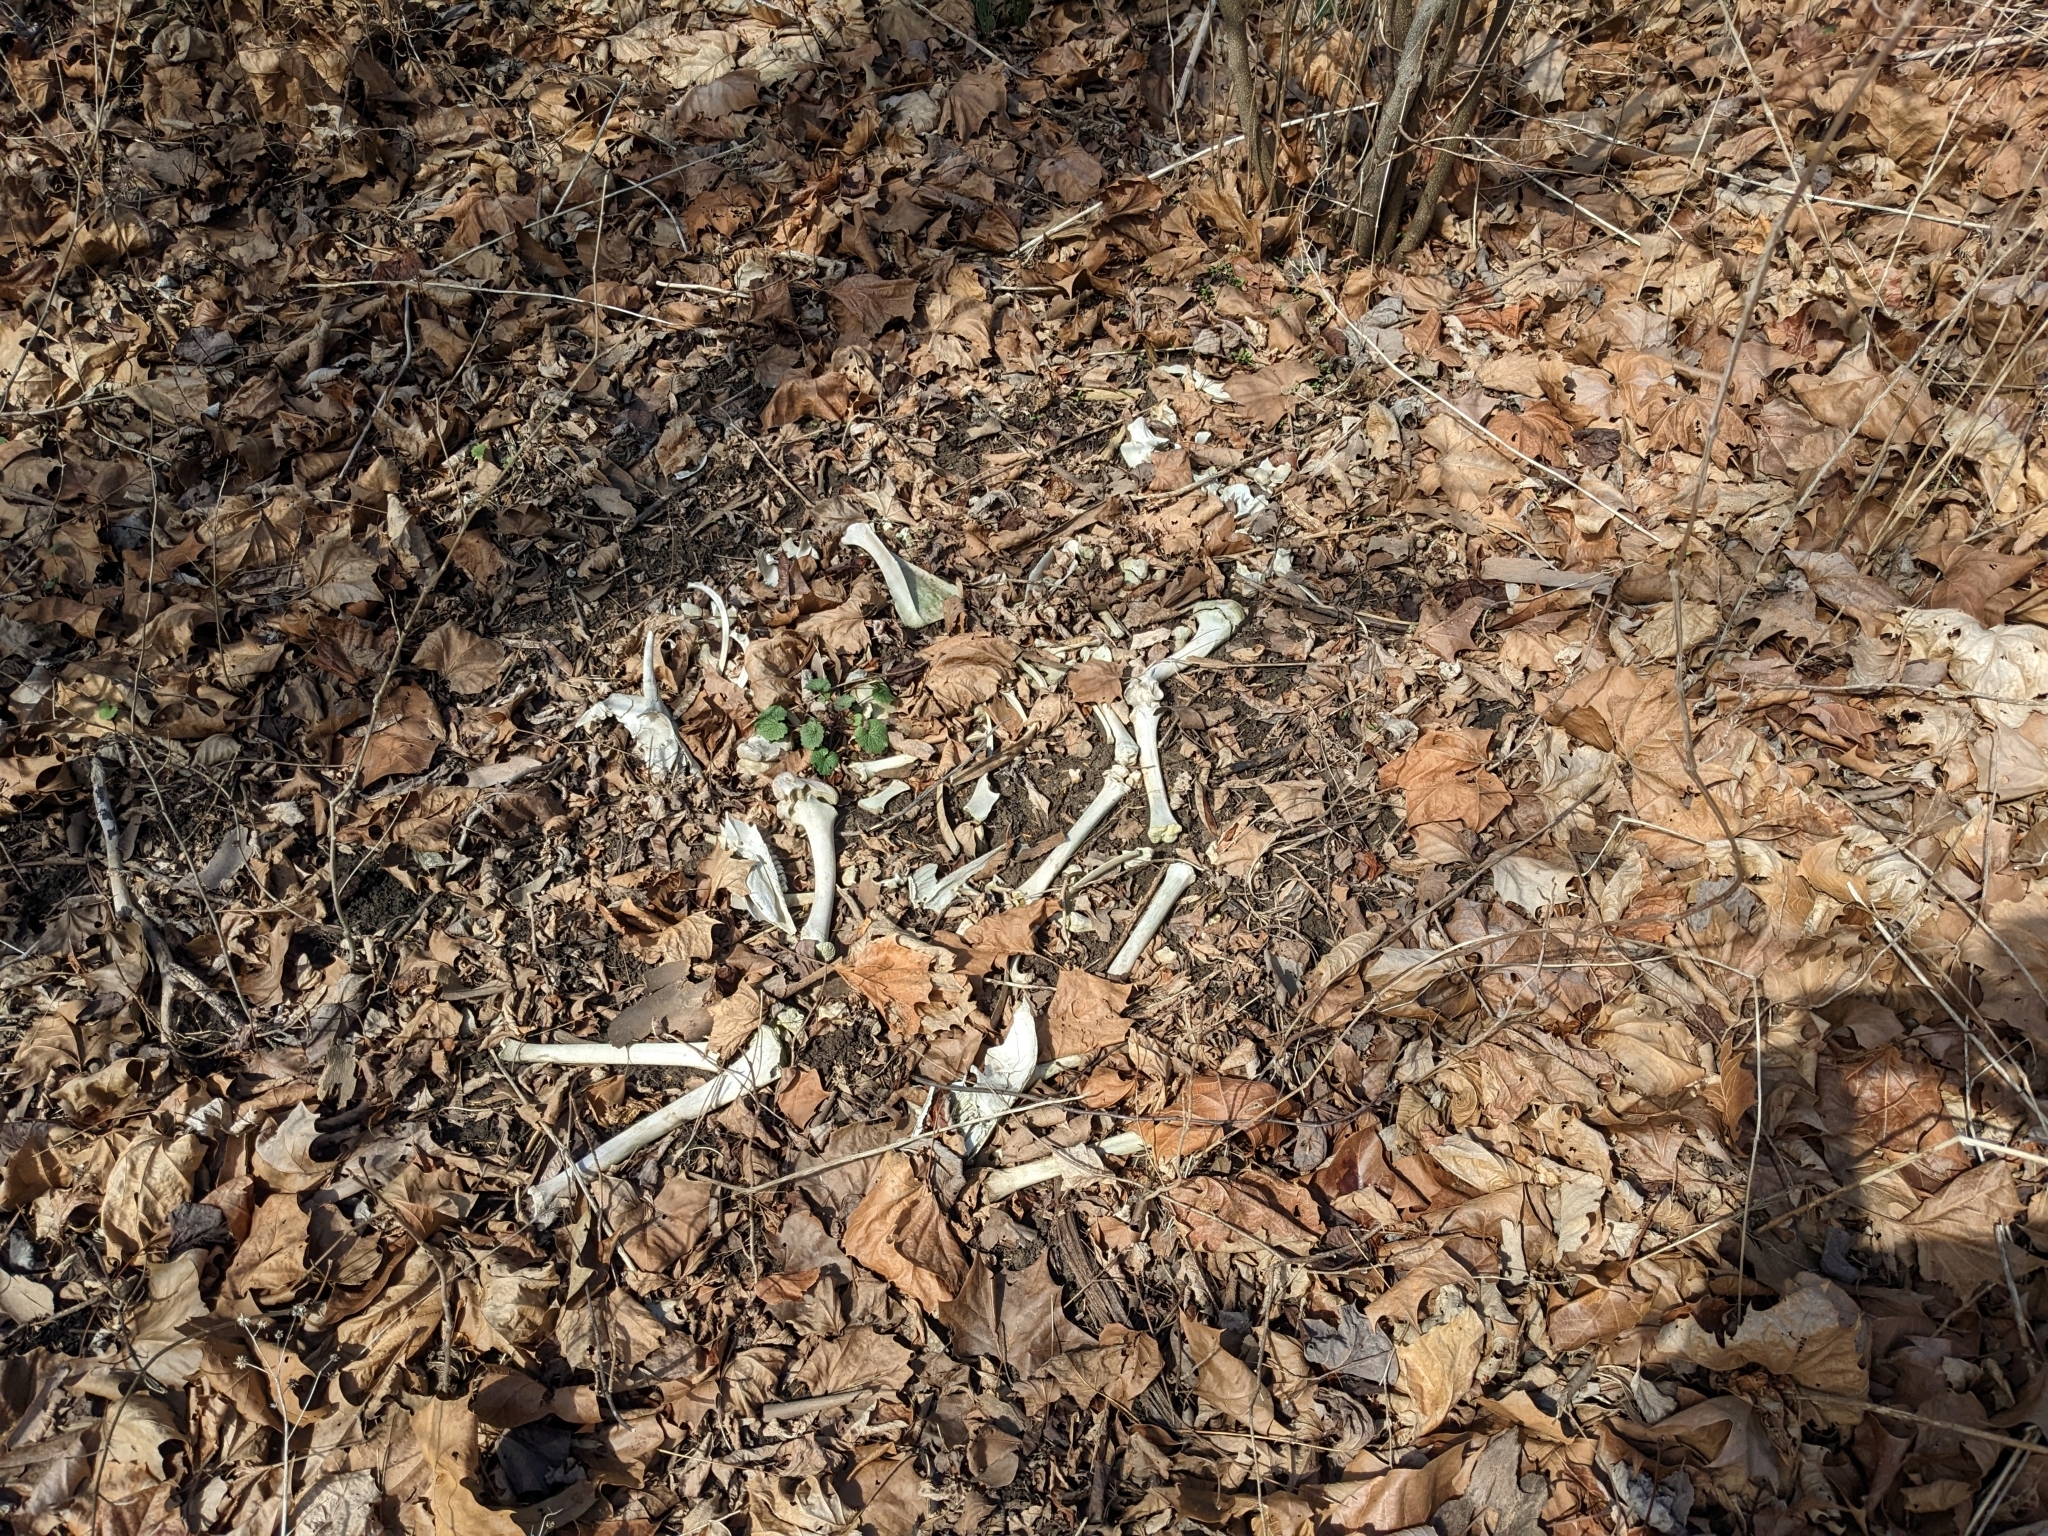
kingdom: Animalia
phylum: Chordata
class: Mammalia
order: Artiodactyla
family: Cervidae
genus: Odocoileus
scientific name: Odocoileus virginianus
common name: White-tailed deer
